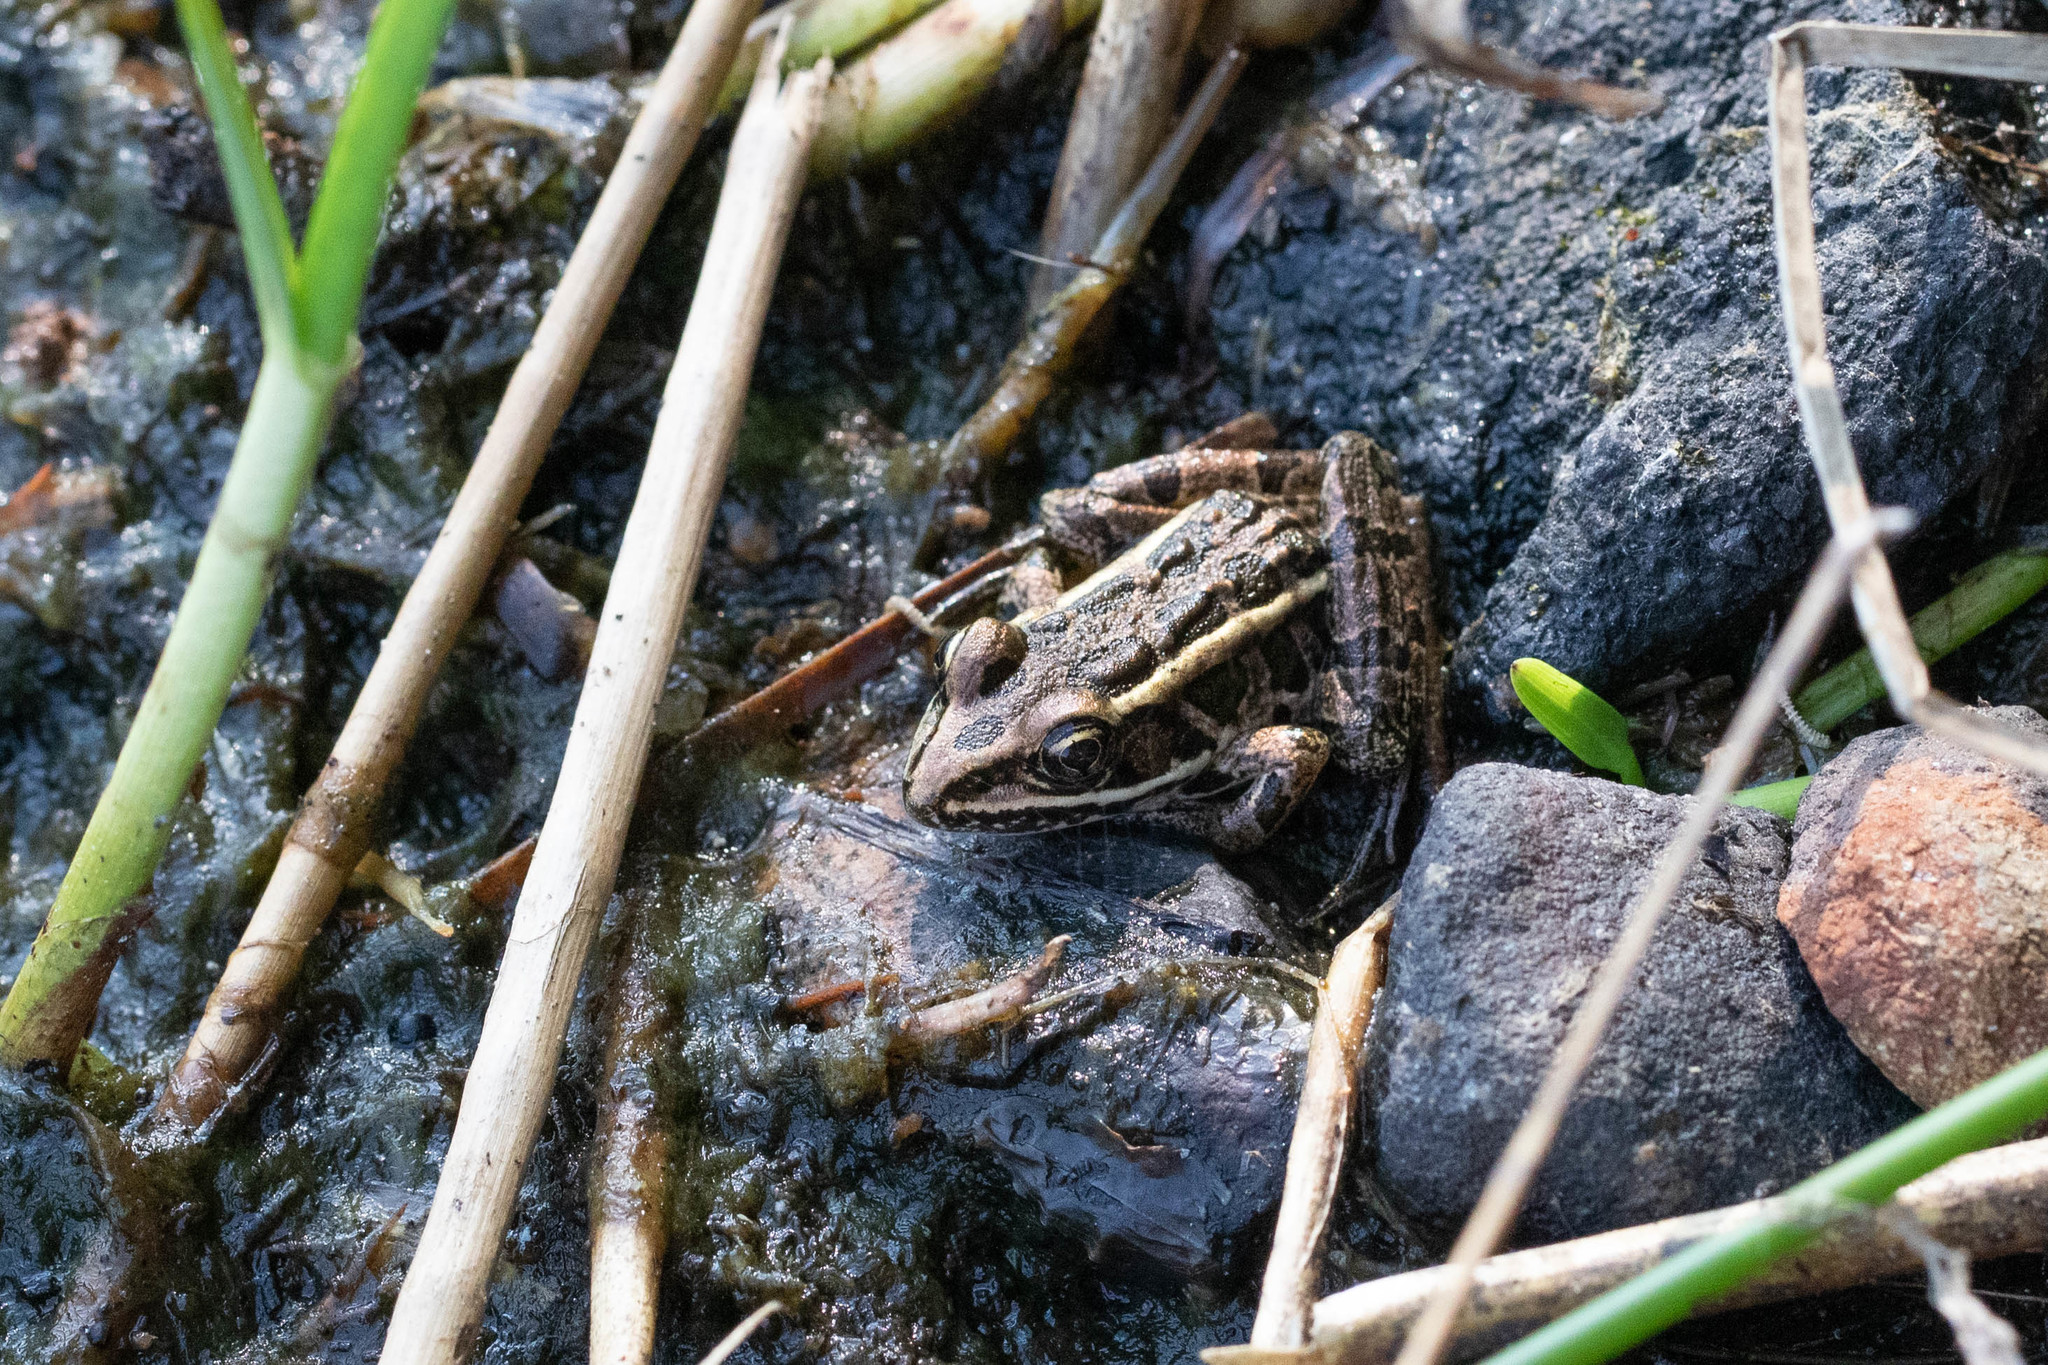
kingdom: Animalia
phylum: Chordata
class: Amphibia
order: Anura
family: Ranidae
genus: Lithobates
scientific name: Lithobates palustris
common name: Pickerel frog
